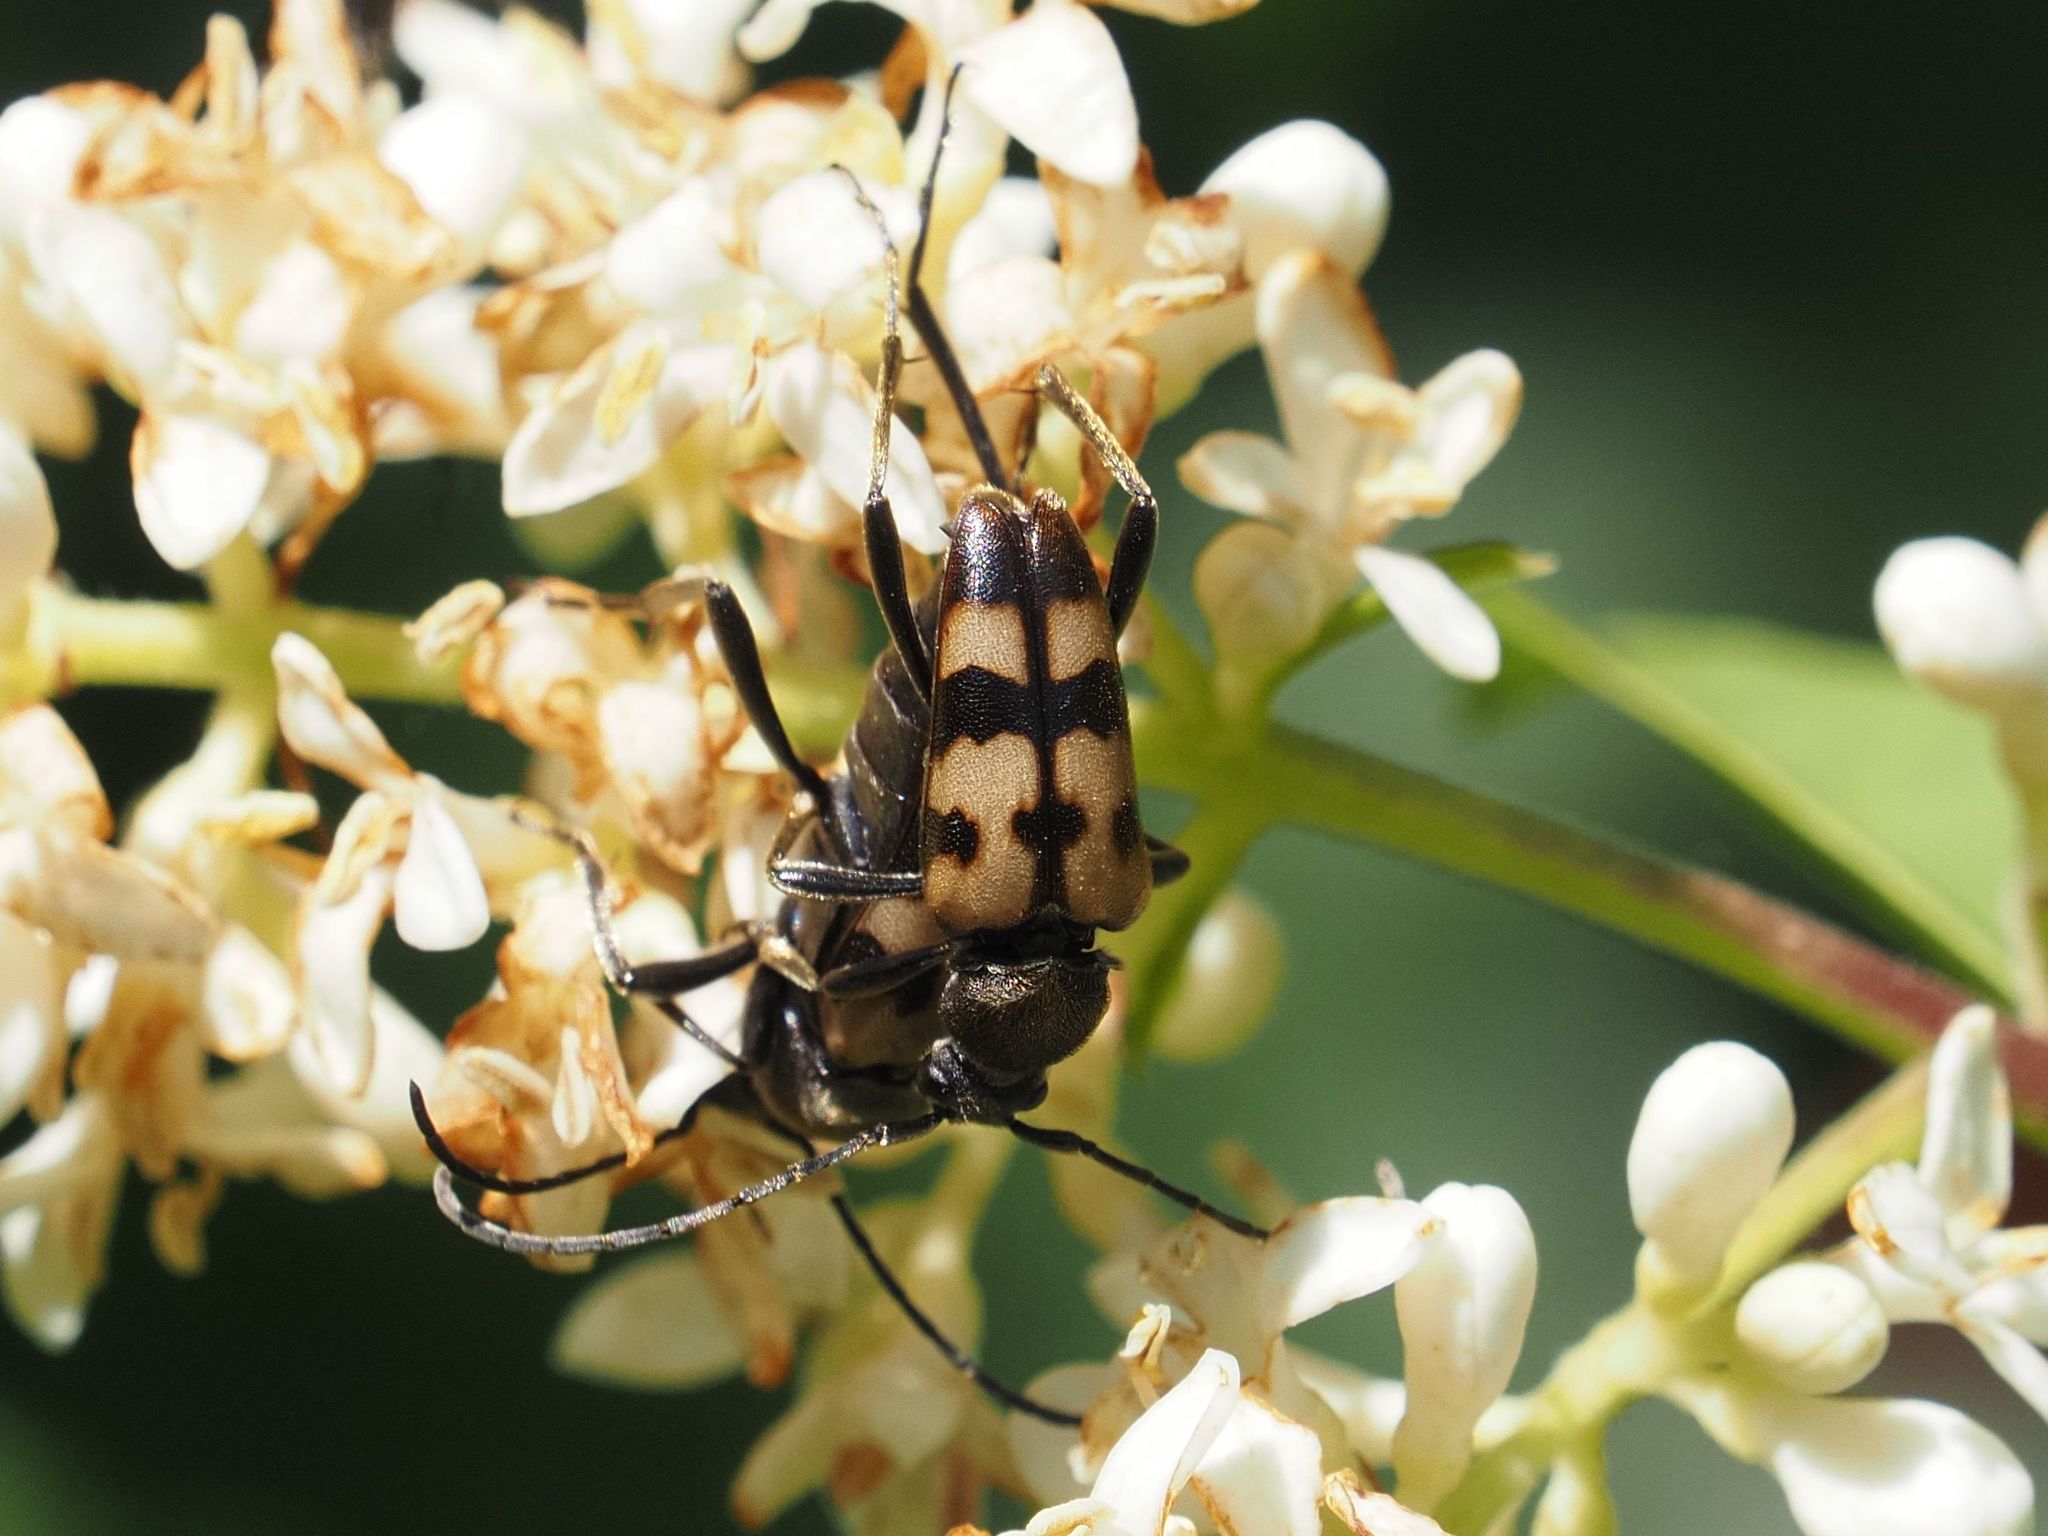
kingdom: Animalia
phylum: Arthropoda
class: Insecta
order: Coleoptera
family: Cerambycidae
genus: Pachytodes
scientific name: Pachytodes
